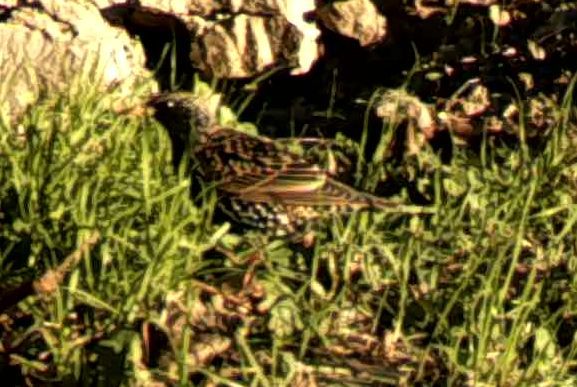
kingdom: Animalia
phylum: Chordata
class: Aves
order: Passeriformes
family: Sturnidae
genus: Sturnus
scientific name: Sturnus vulgaris
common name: Common starling
